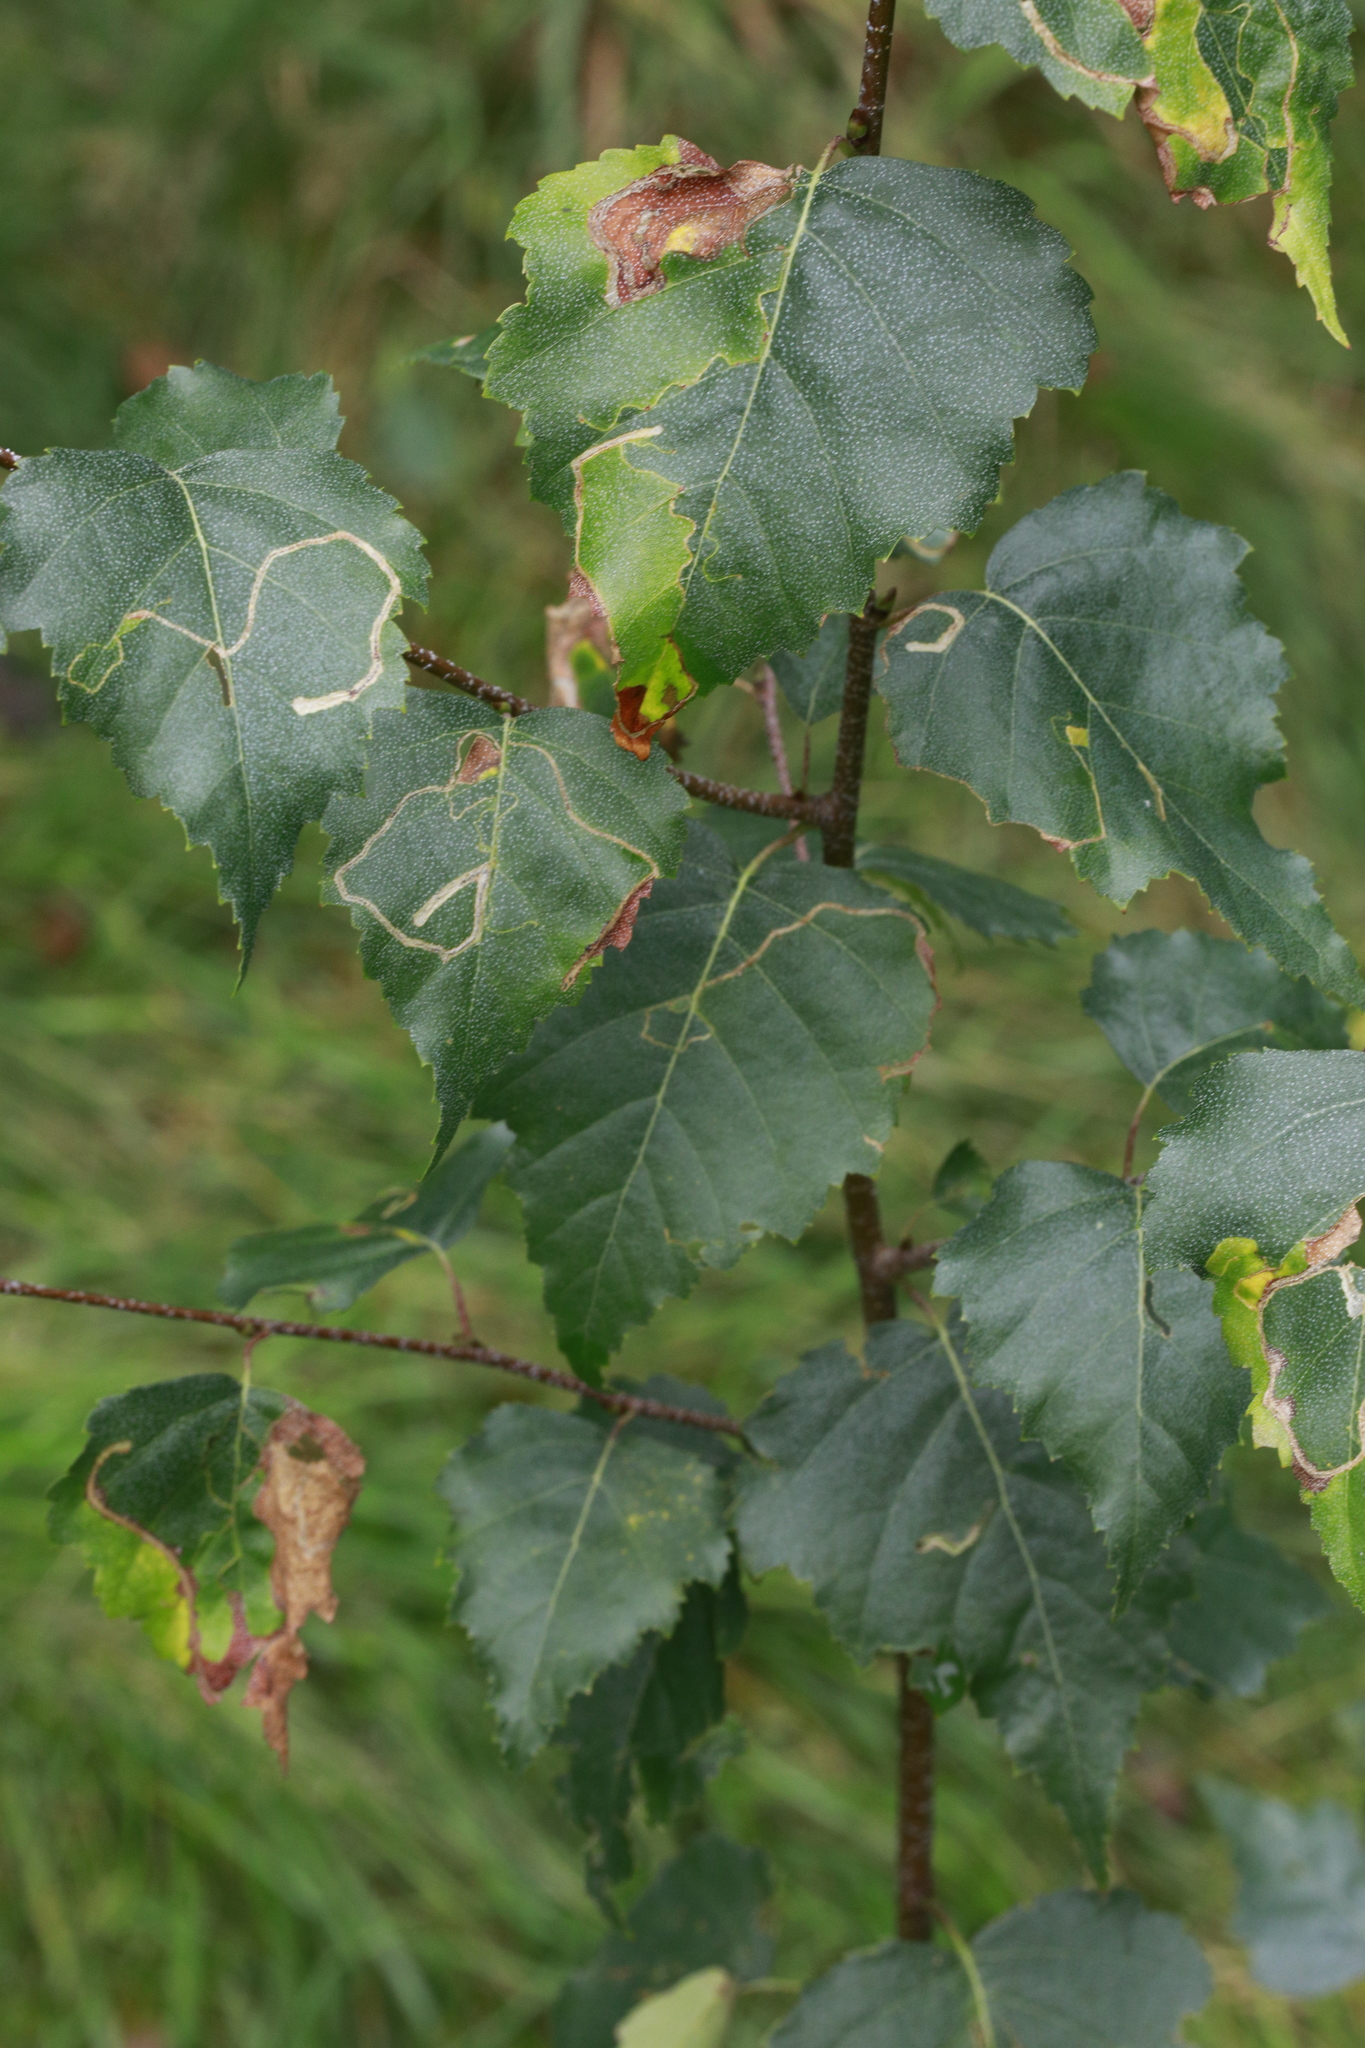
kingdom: Plantae
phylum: Tracheophyta
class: Magnoliopsida
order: Fagales
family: Betulaceae
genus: Betula
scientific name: Betula pendula
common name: Silver birch
